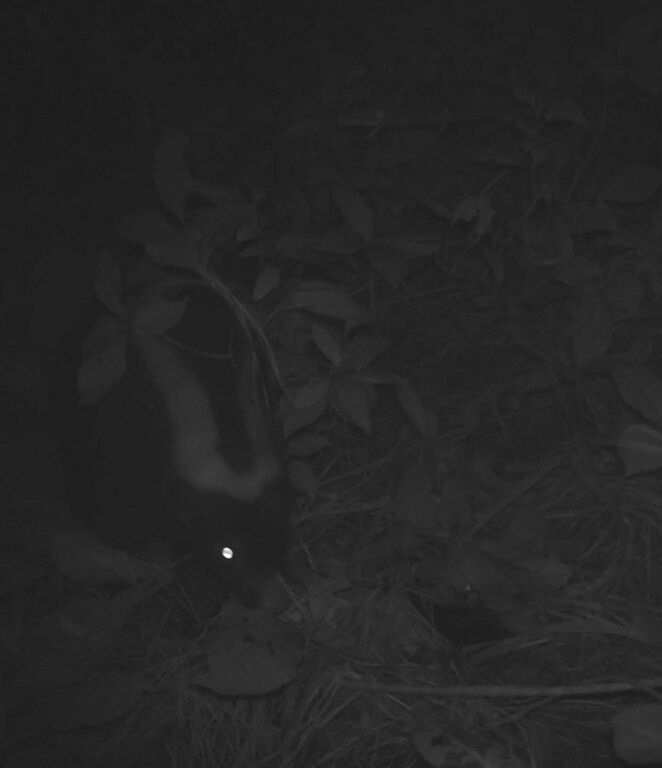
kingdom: Animalia
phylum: Chordata
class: Mammalia
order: Carnivora
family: Mephitidae
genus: Conepatus
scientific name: Conepatus chinga
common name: Molina's hog-nosed skunk
